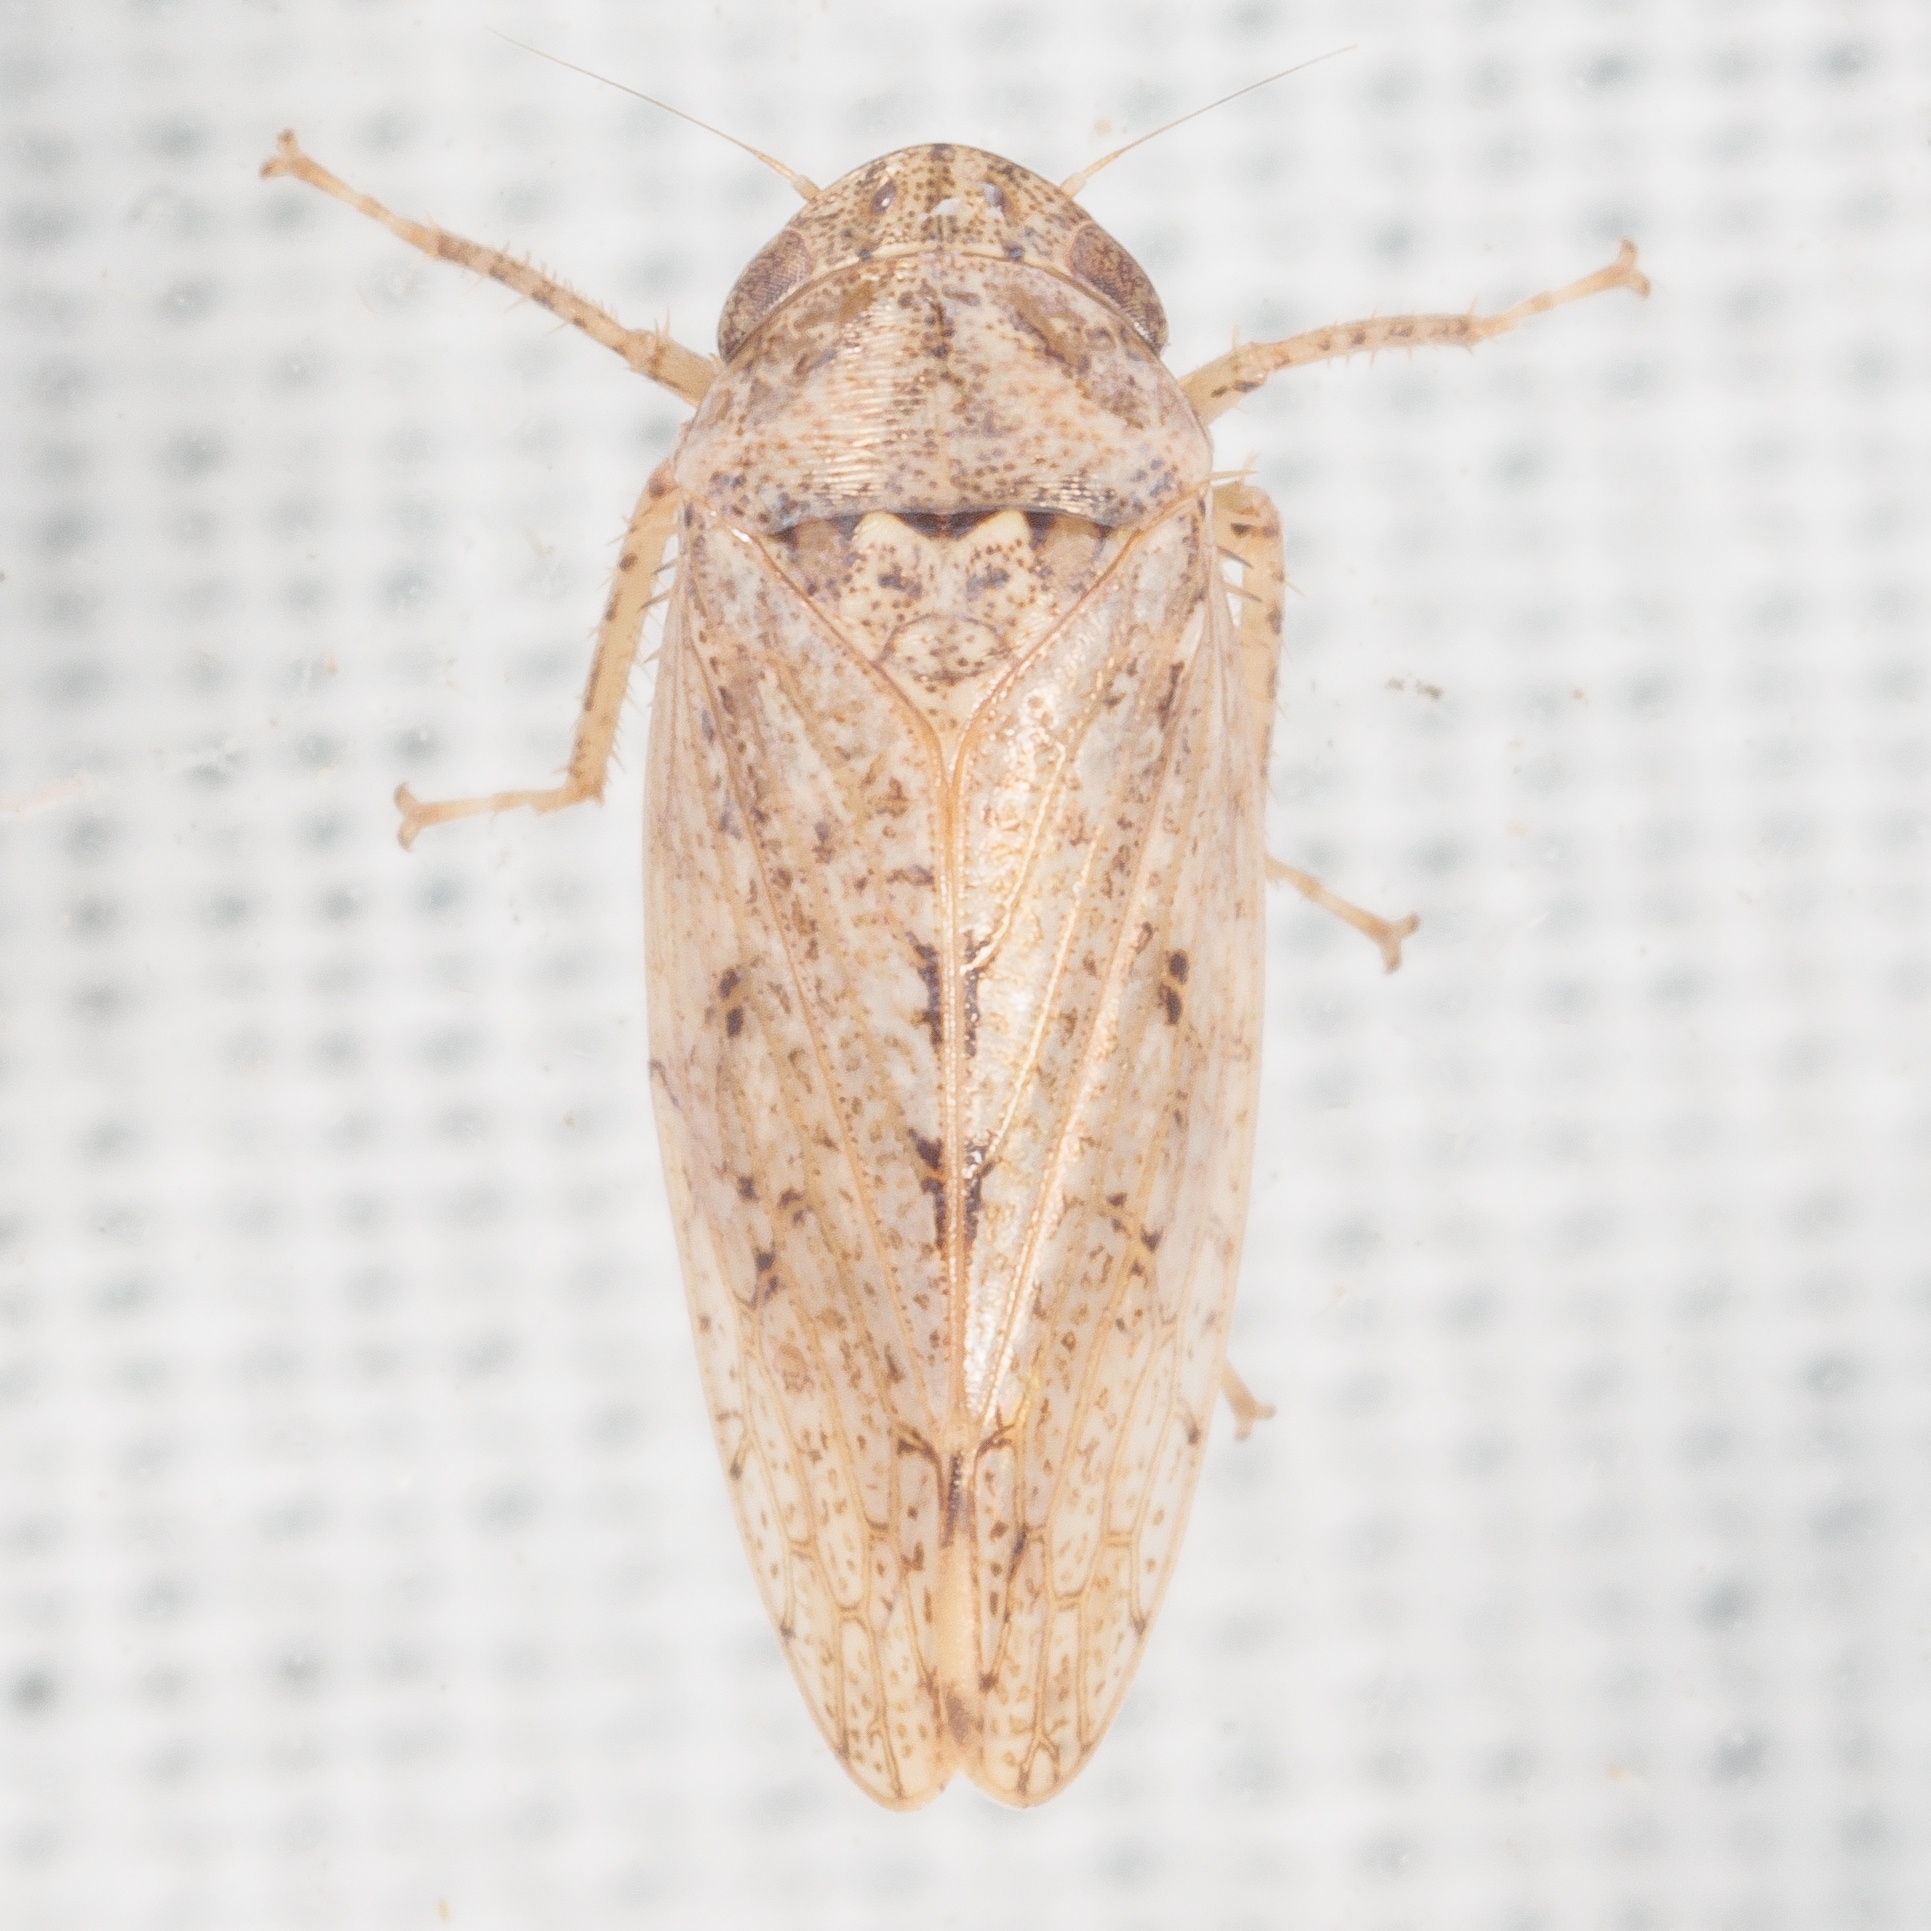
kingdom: Animalia
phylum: Arthropoda
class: Insecta
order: Hemiptera
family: Cicadellidae
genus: Curtara
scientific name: Curtara insularis
